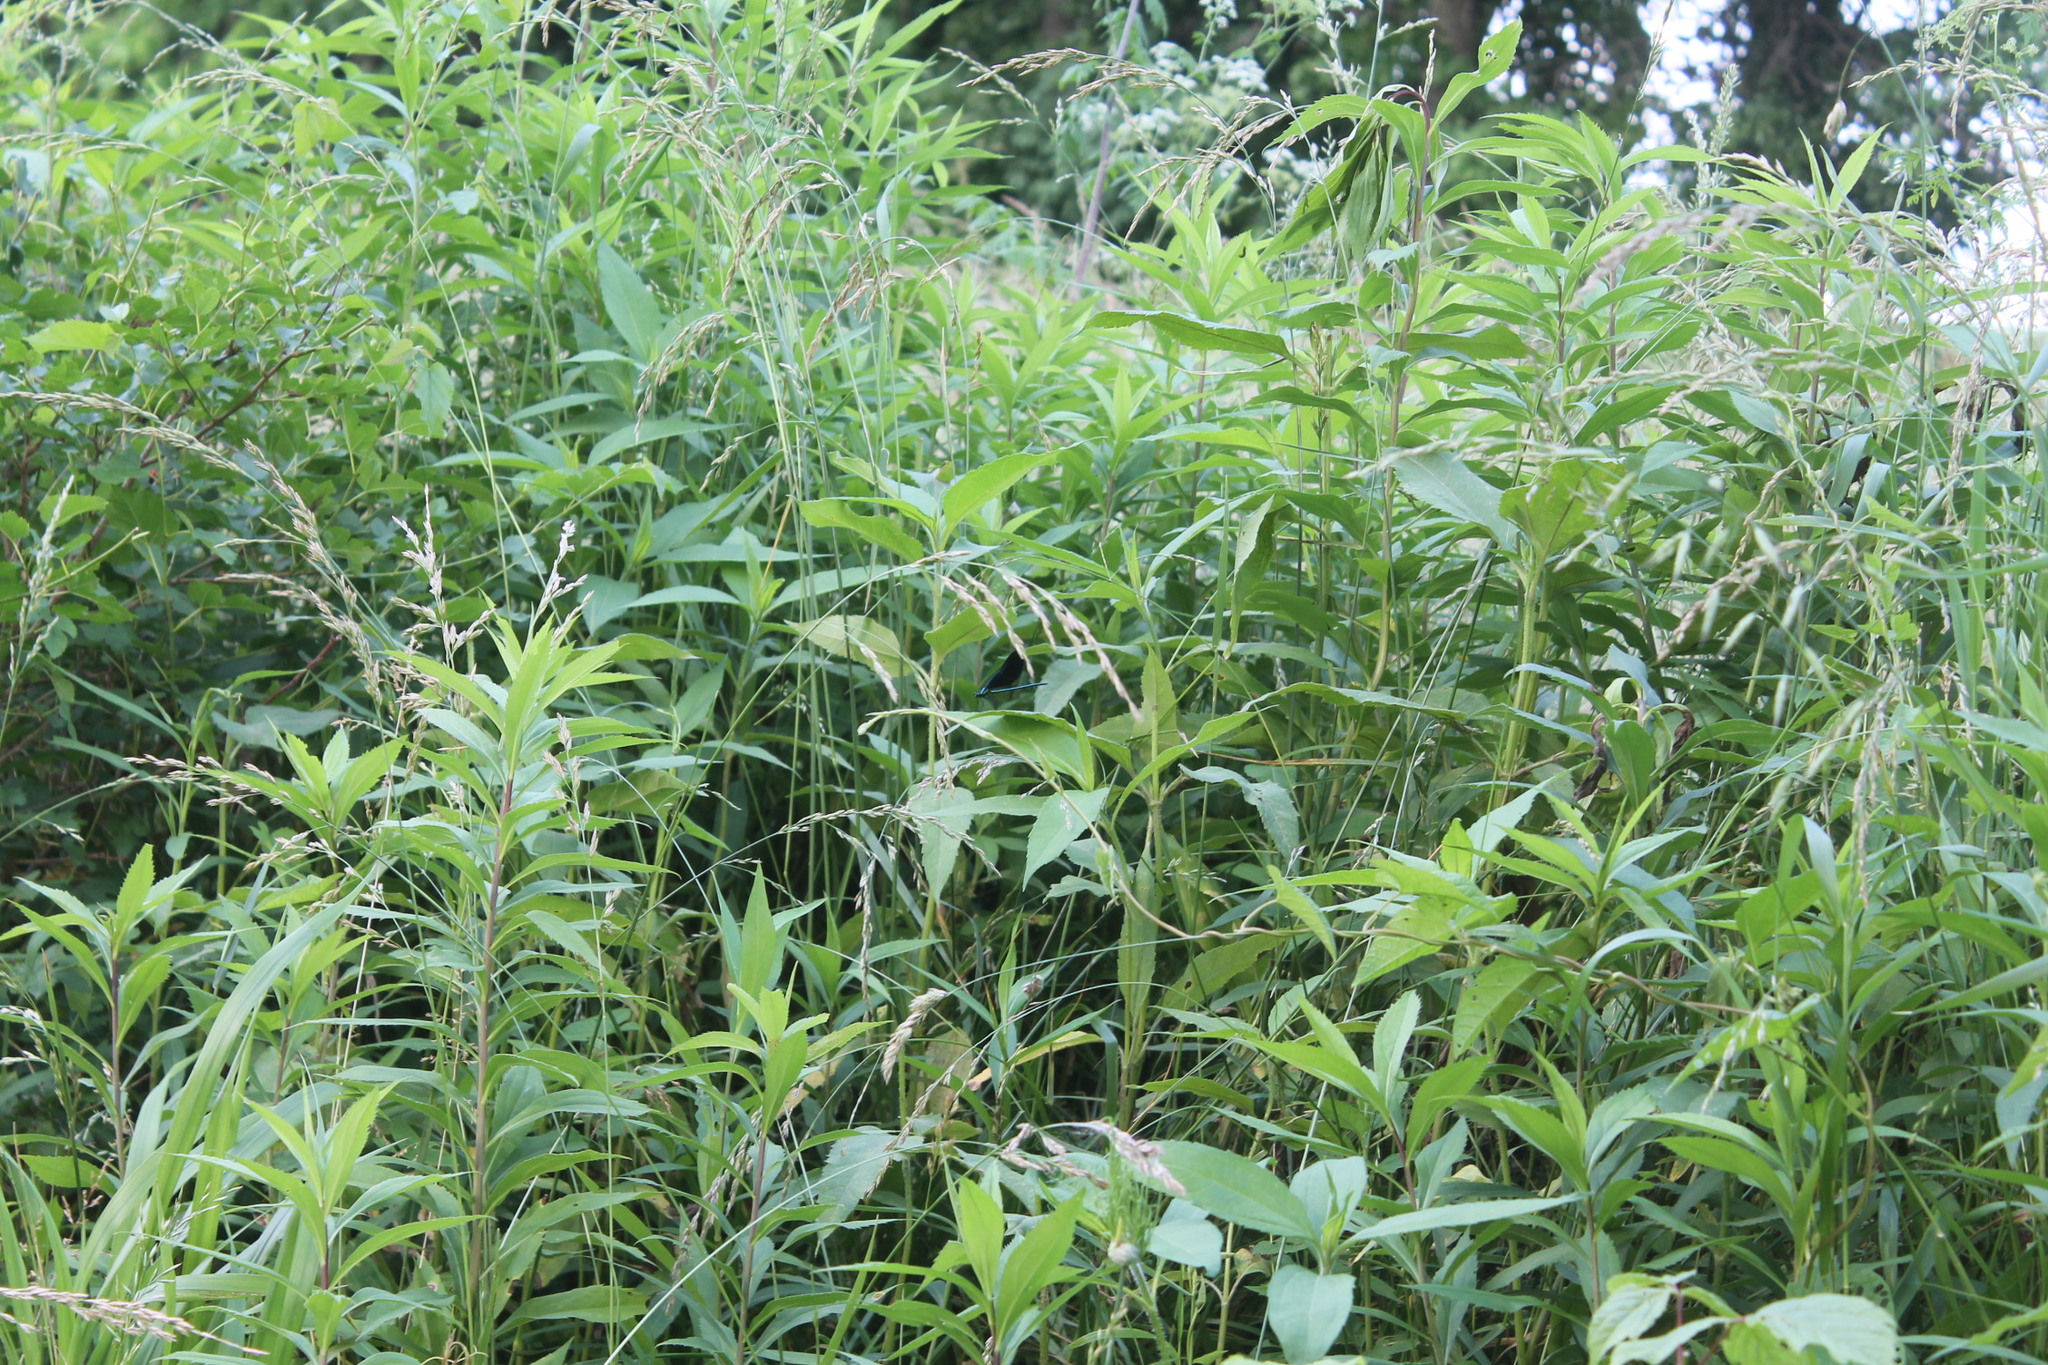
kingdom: Animalia
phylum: Arthropoda
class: Insecta
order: Odonata
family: Calopterygidae
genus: Calopteryx
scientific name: Calopteryx maculata
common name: Ebony jewelwing
